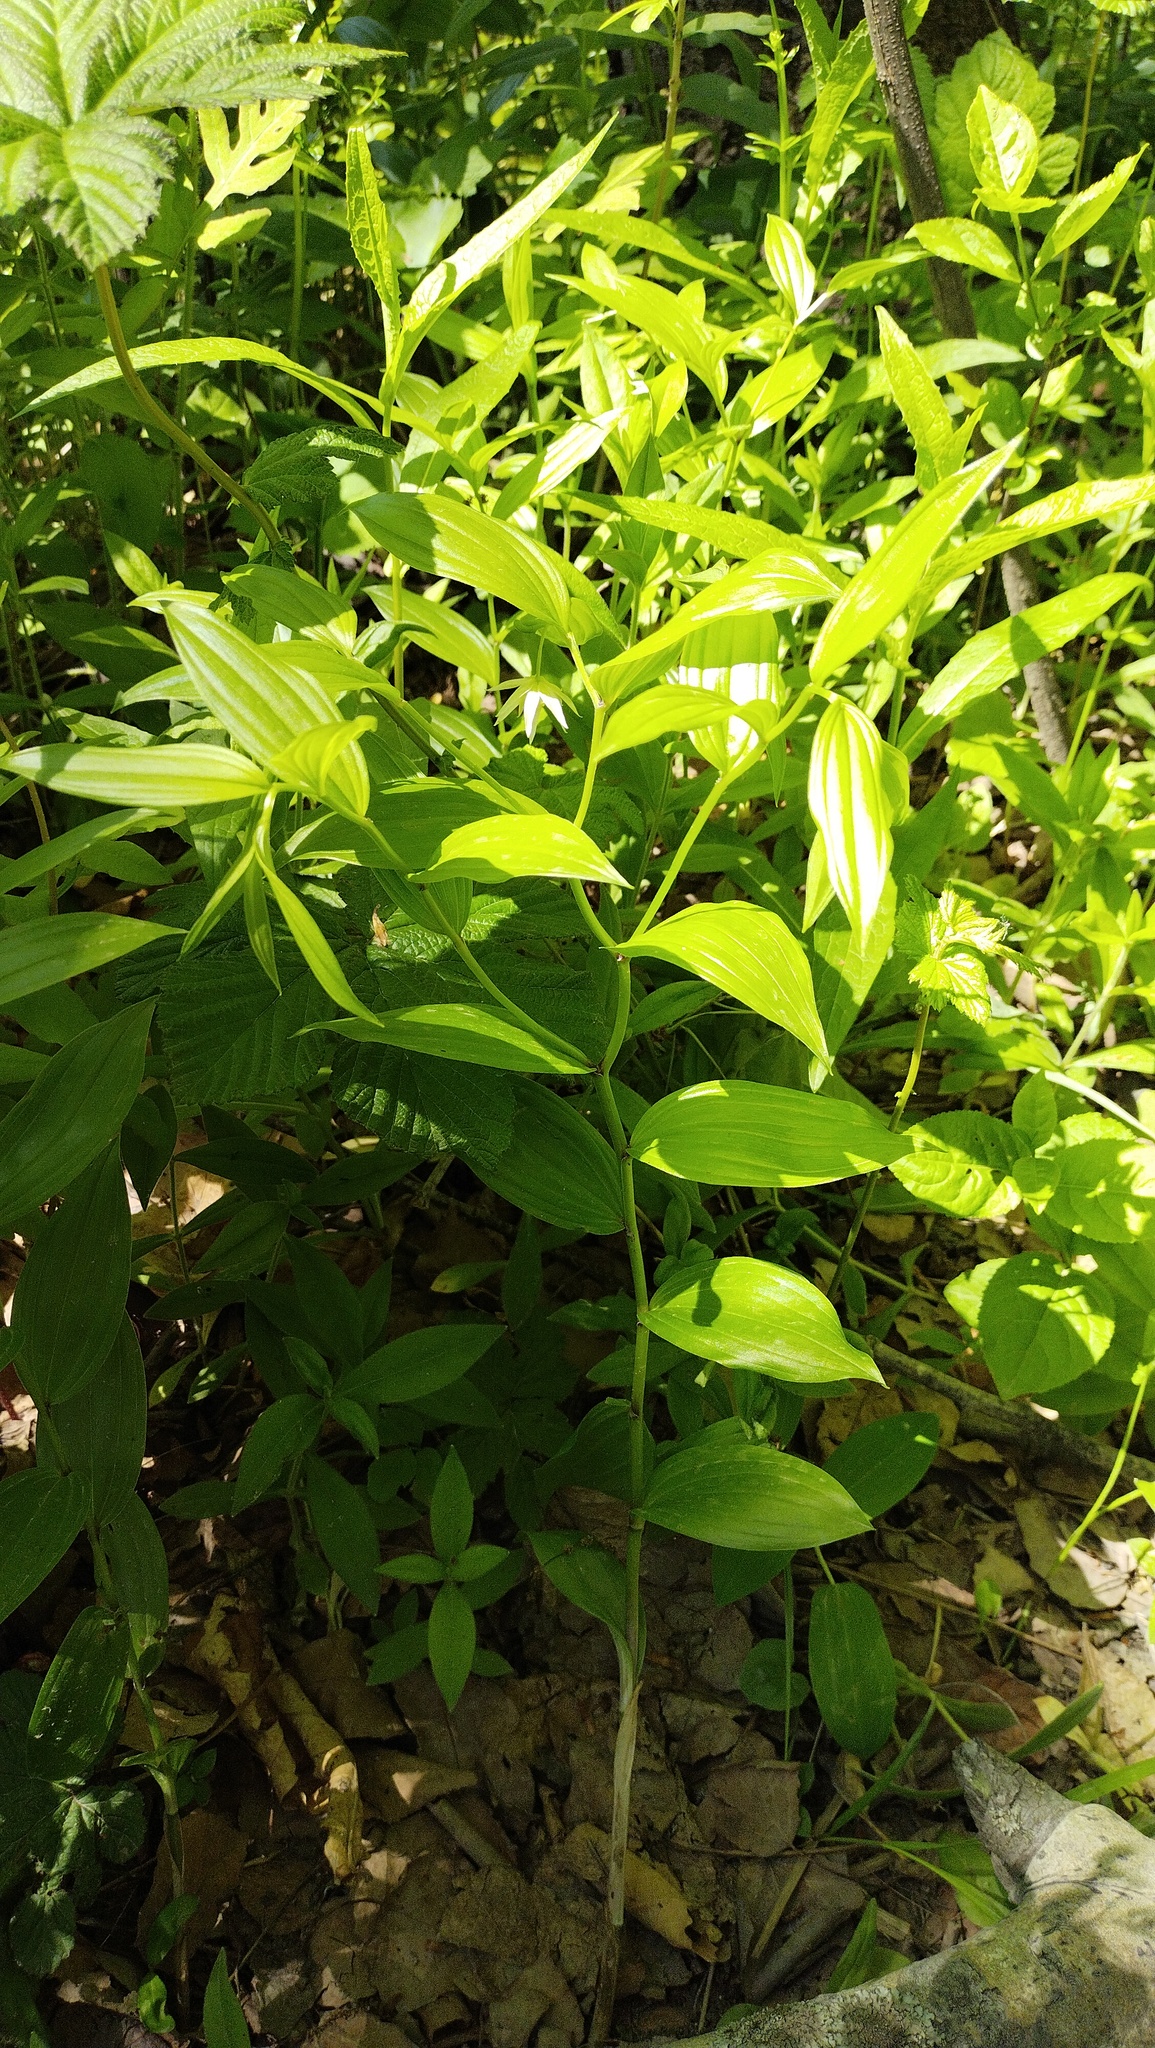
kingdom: Plantae
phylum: Tracheophyta
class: Liliopsida
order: Liliales
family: Colchicaceae
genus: Disporum
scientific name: Disporum viridescens
